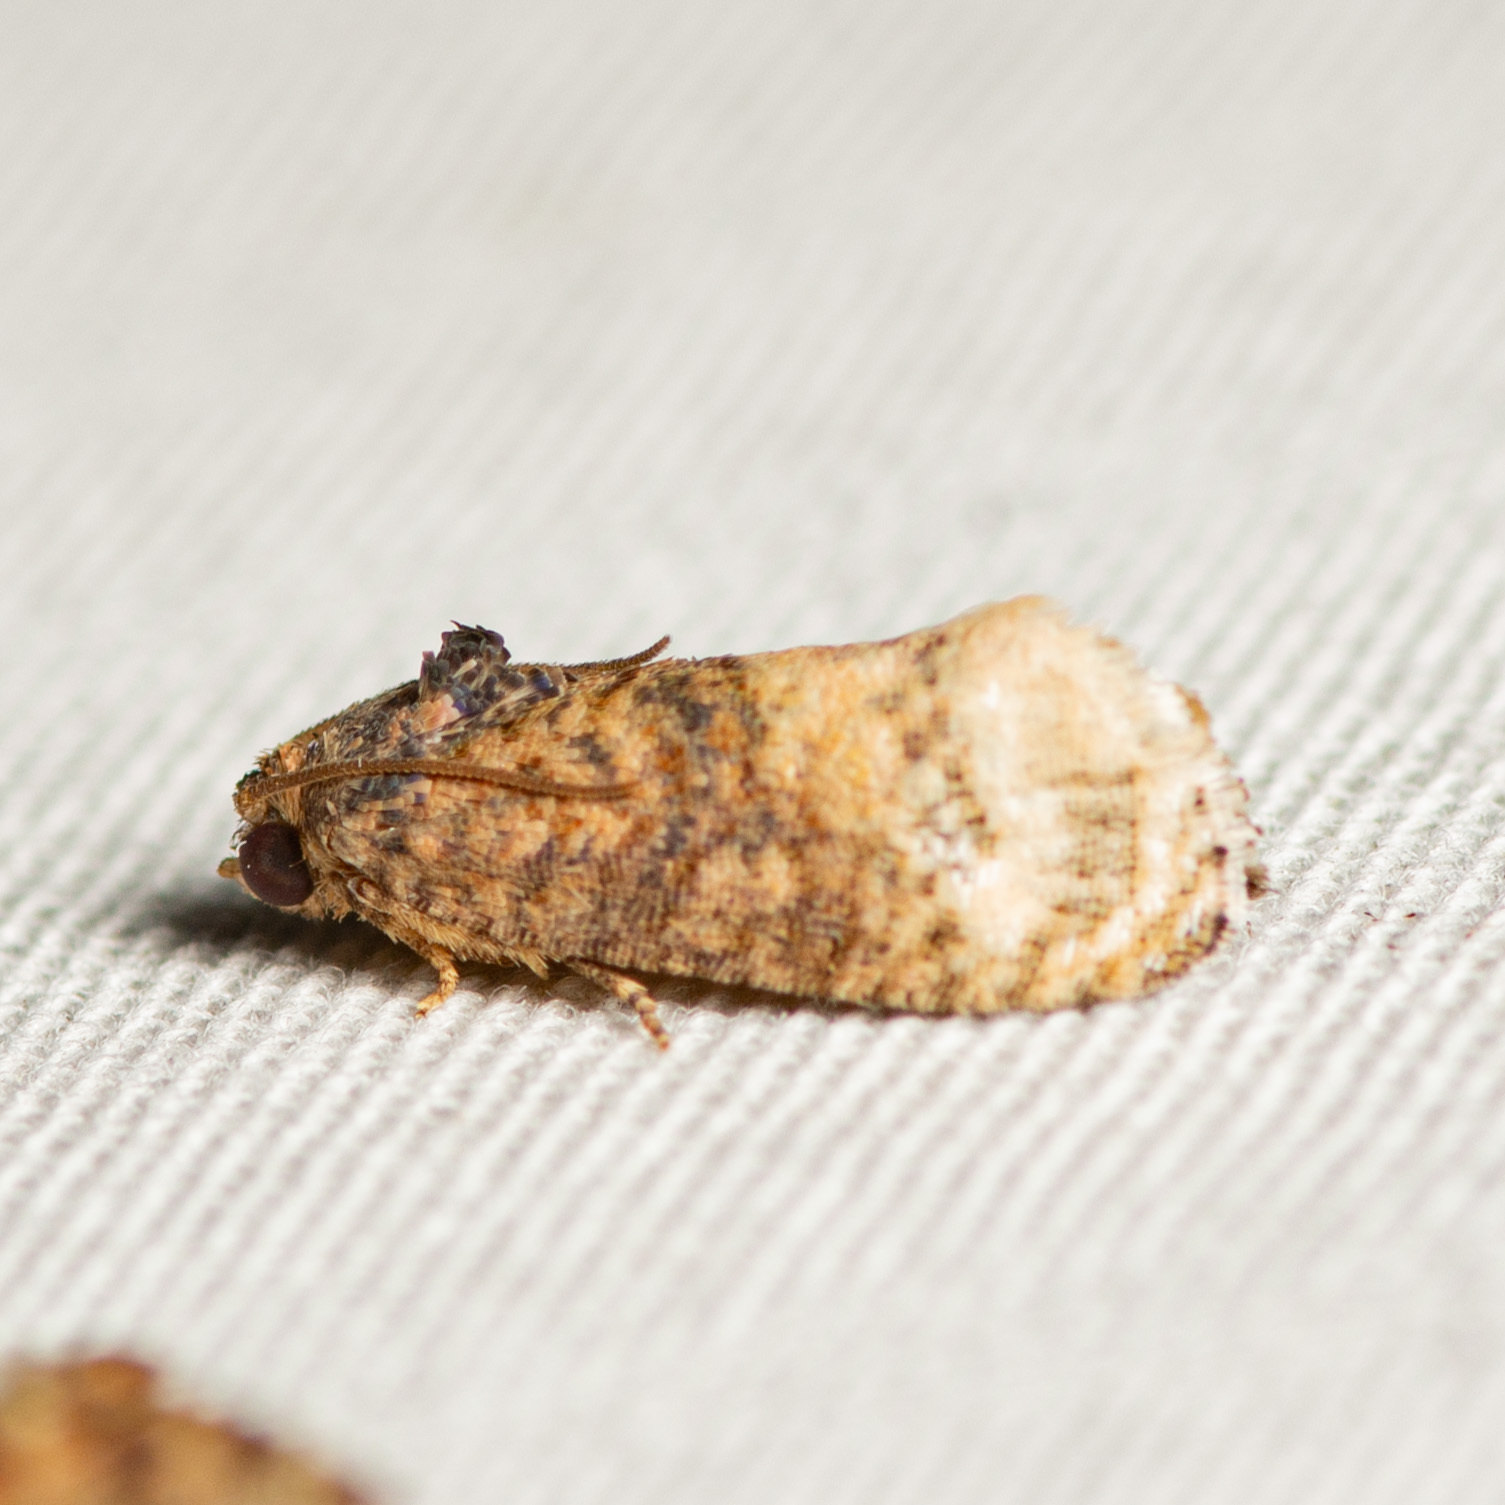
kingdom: Animalia
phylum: Arthropoda
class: Insecta
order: Lepidoptera
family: Tortricidae
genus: Ecdytolopha
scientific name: Ecdytolopha mana
